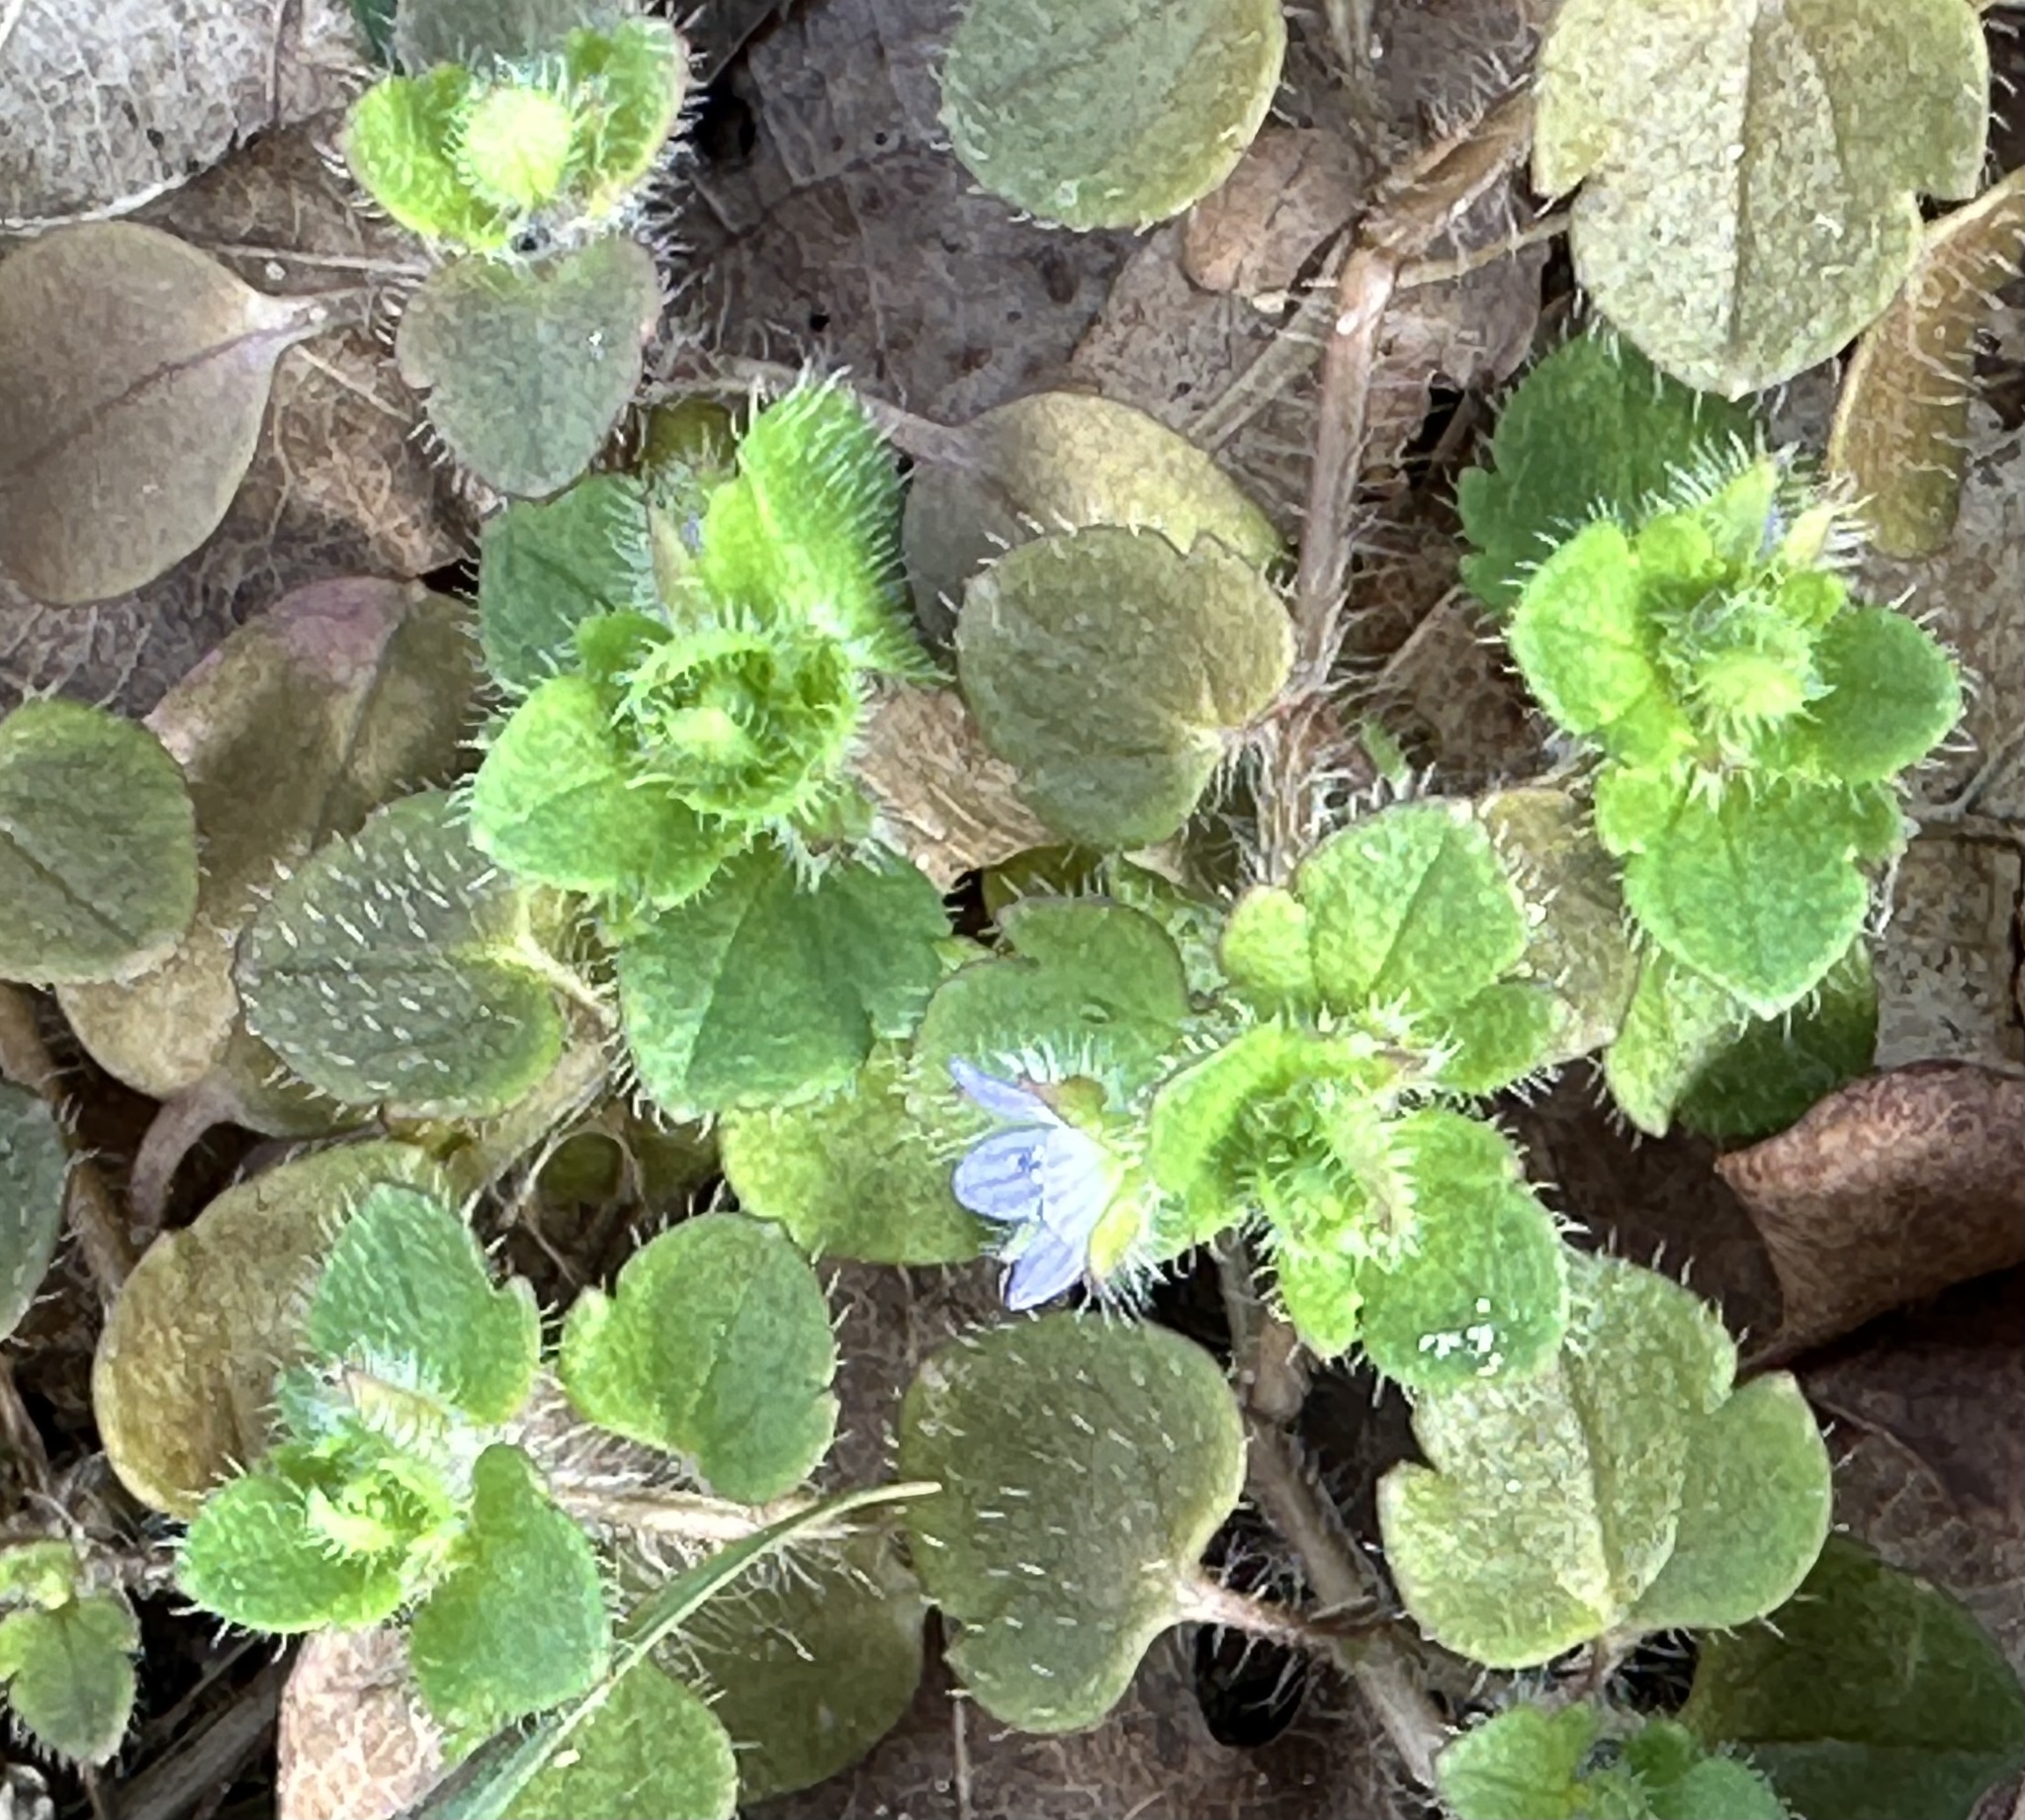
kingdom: Plantae
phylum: Tracheophyta
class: Magnoliopsida
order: Lamiales
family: Plantaginaceae
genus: Veronica
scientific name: Veronica hederifolia
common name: Ivy-leaved speedwell
